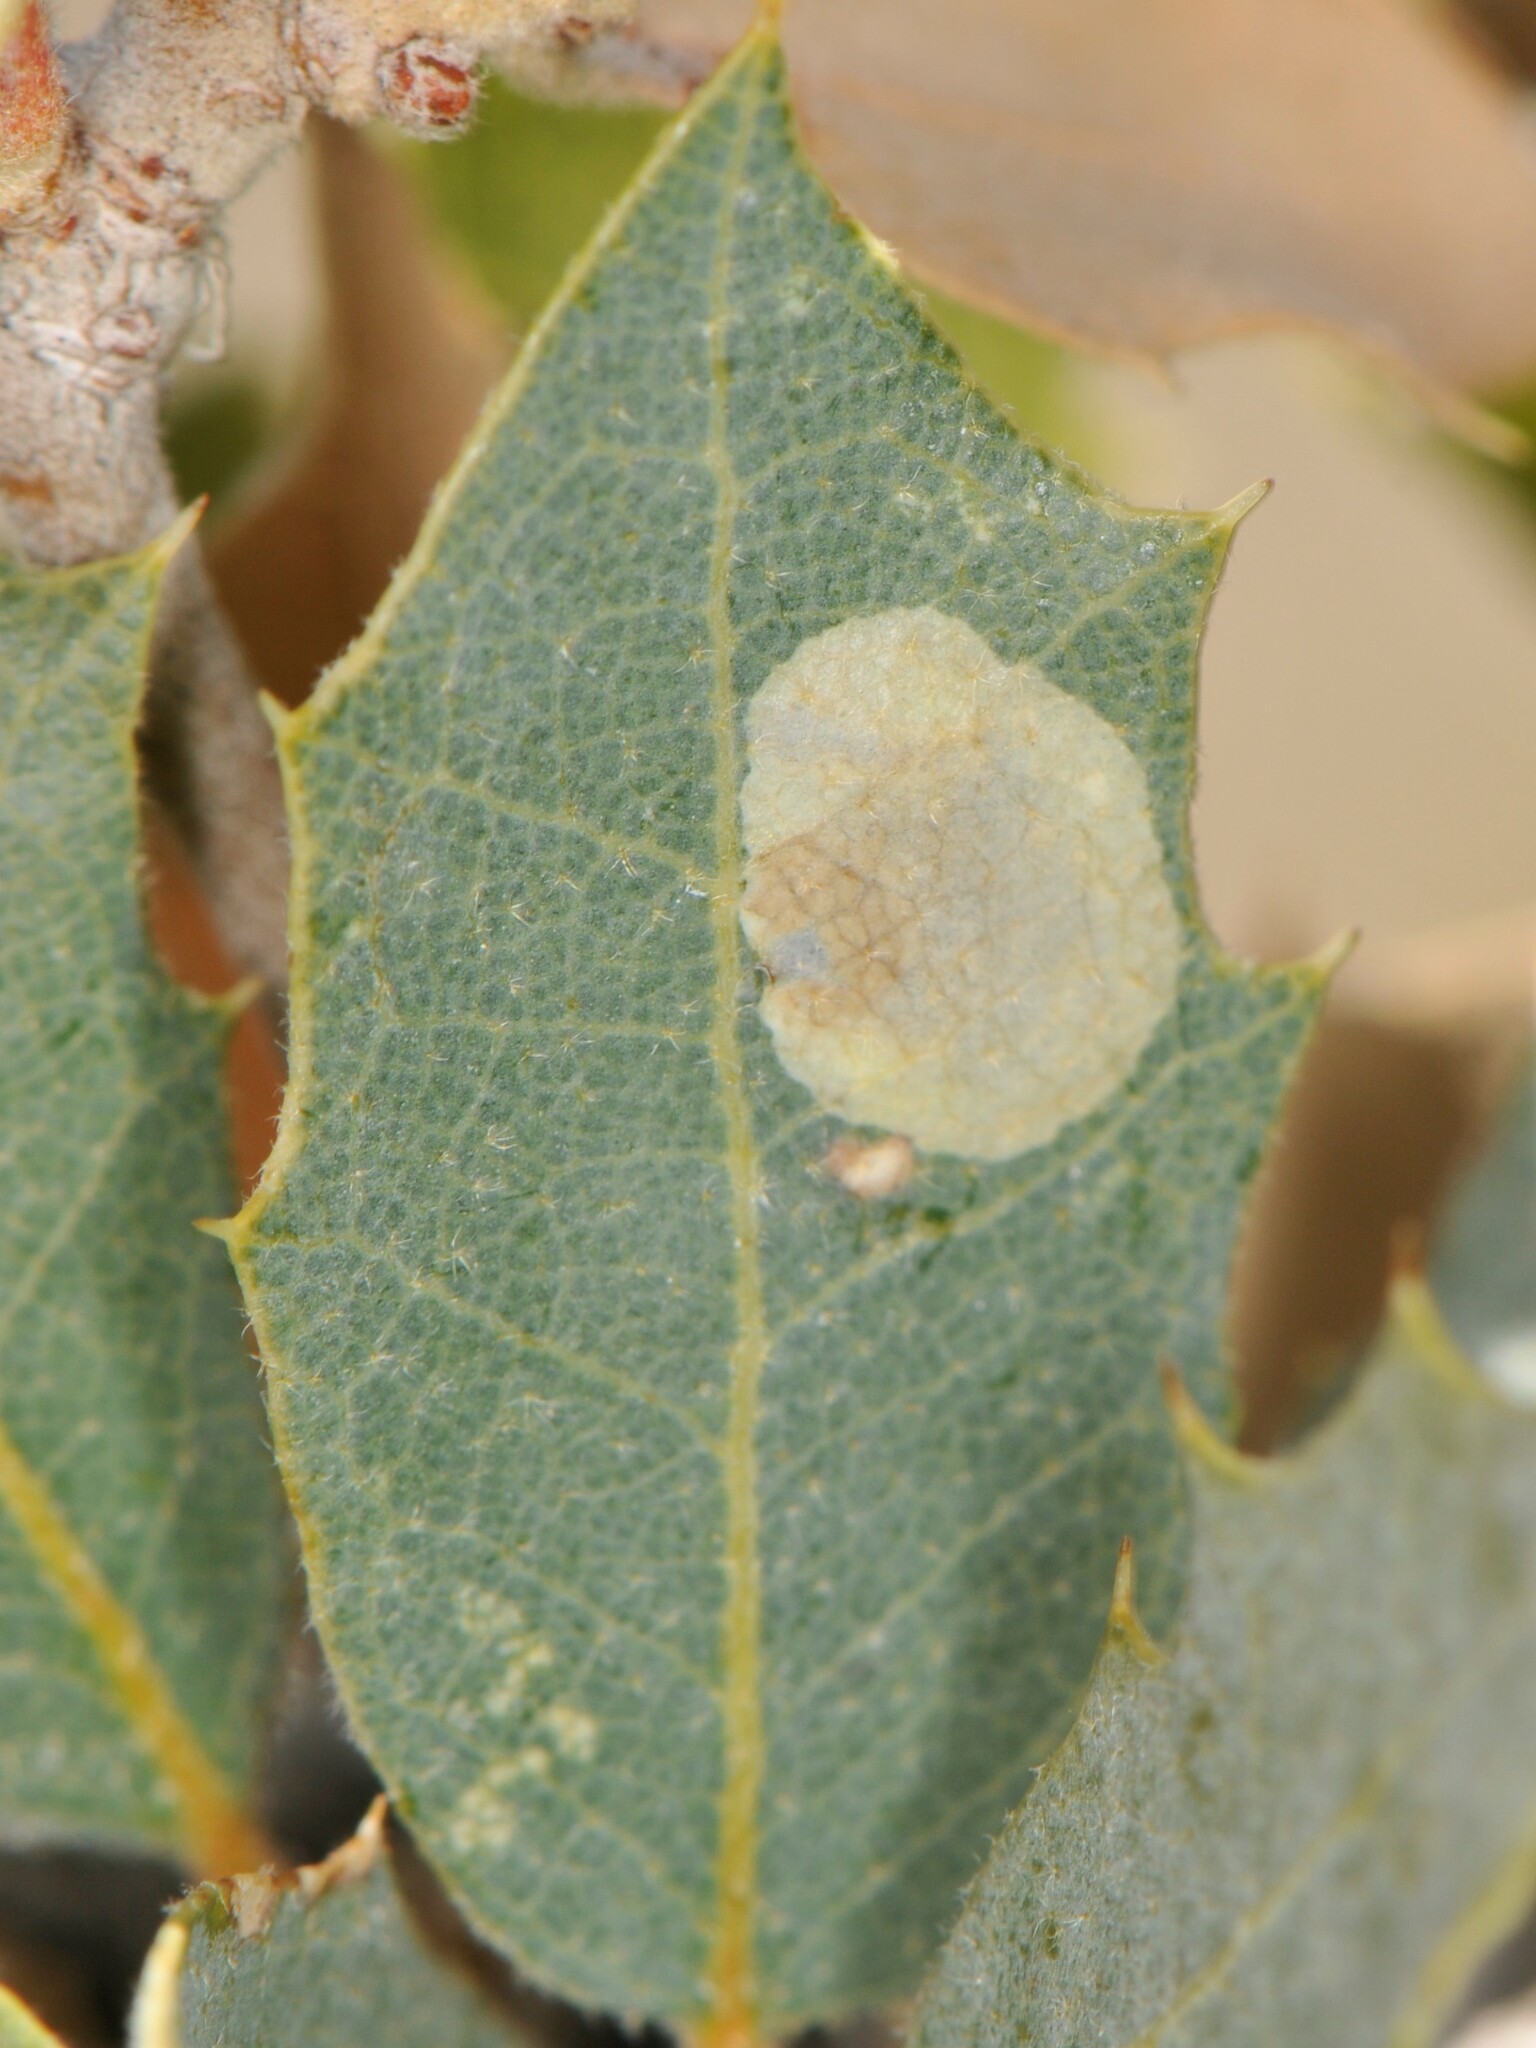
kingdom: Animalia
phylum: Arthropoda
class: Insecta
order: Lepidoptera
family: Gracillariidae
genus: Cameraria
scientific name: Cameraria
